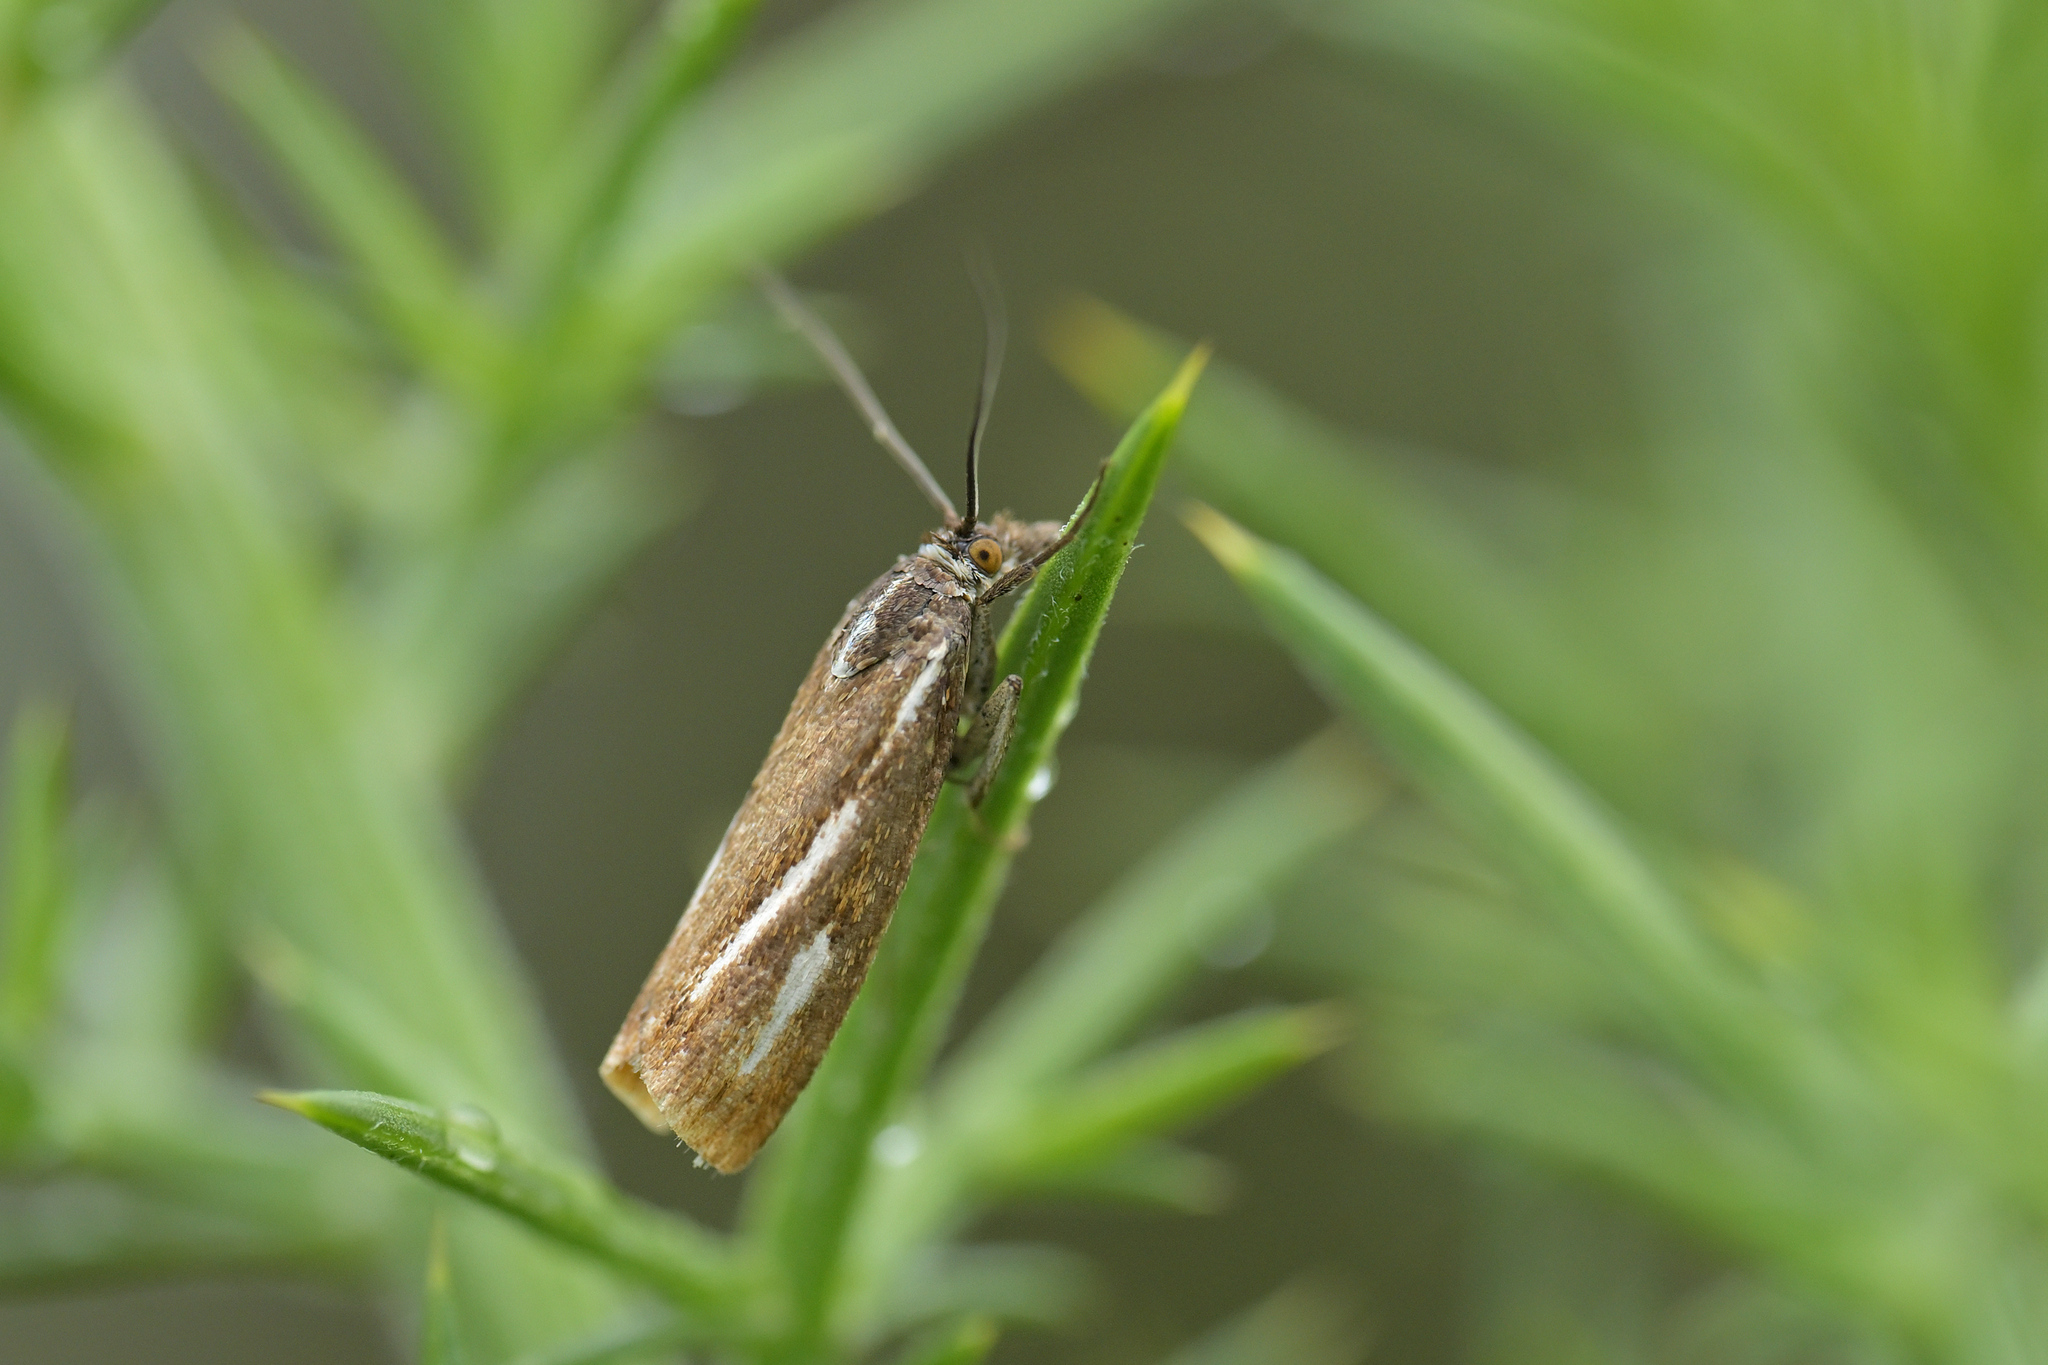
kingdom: Animalia
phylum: Arthropoda
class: Insecta
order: Lepidoptera
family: Crambidae
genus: Orocrambus
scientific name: Orocrambus heliotes
